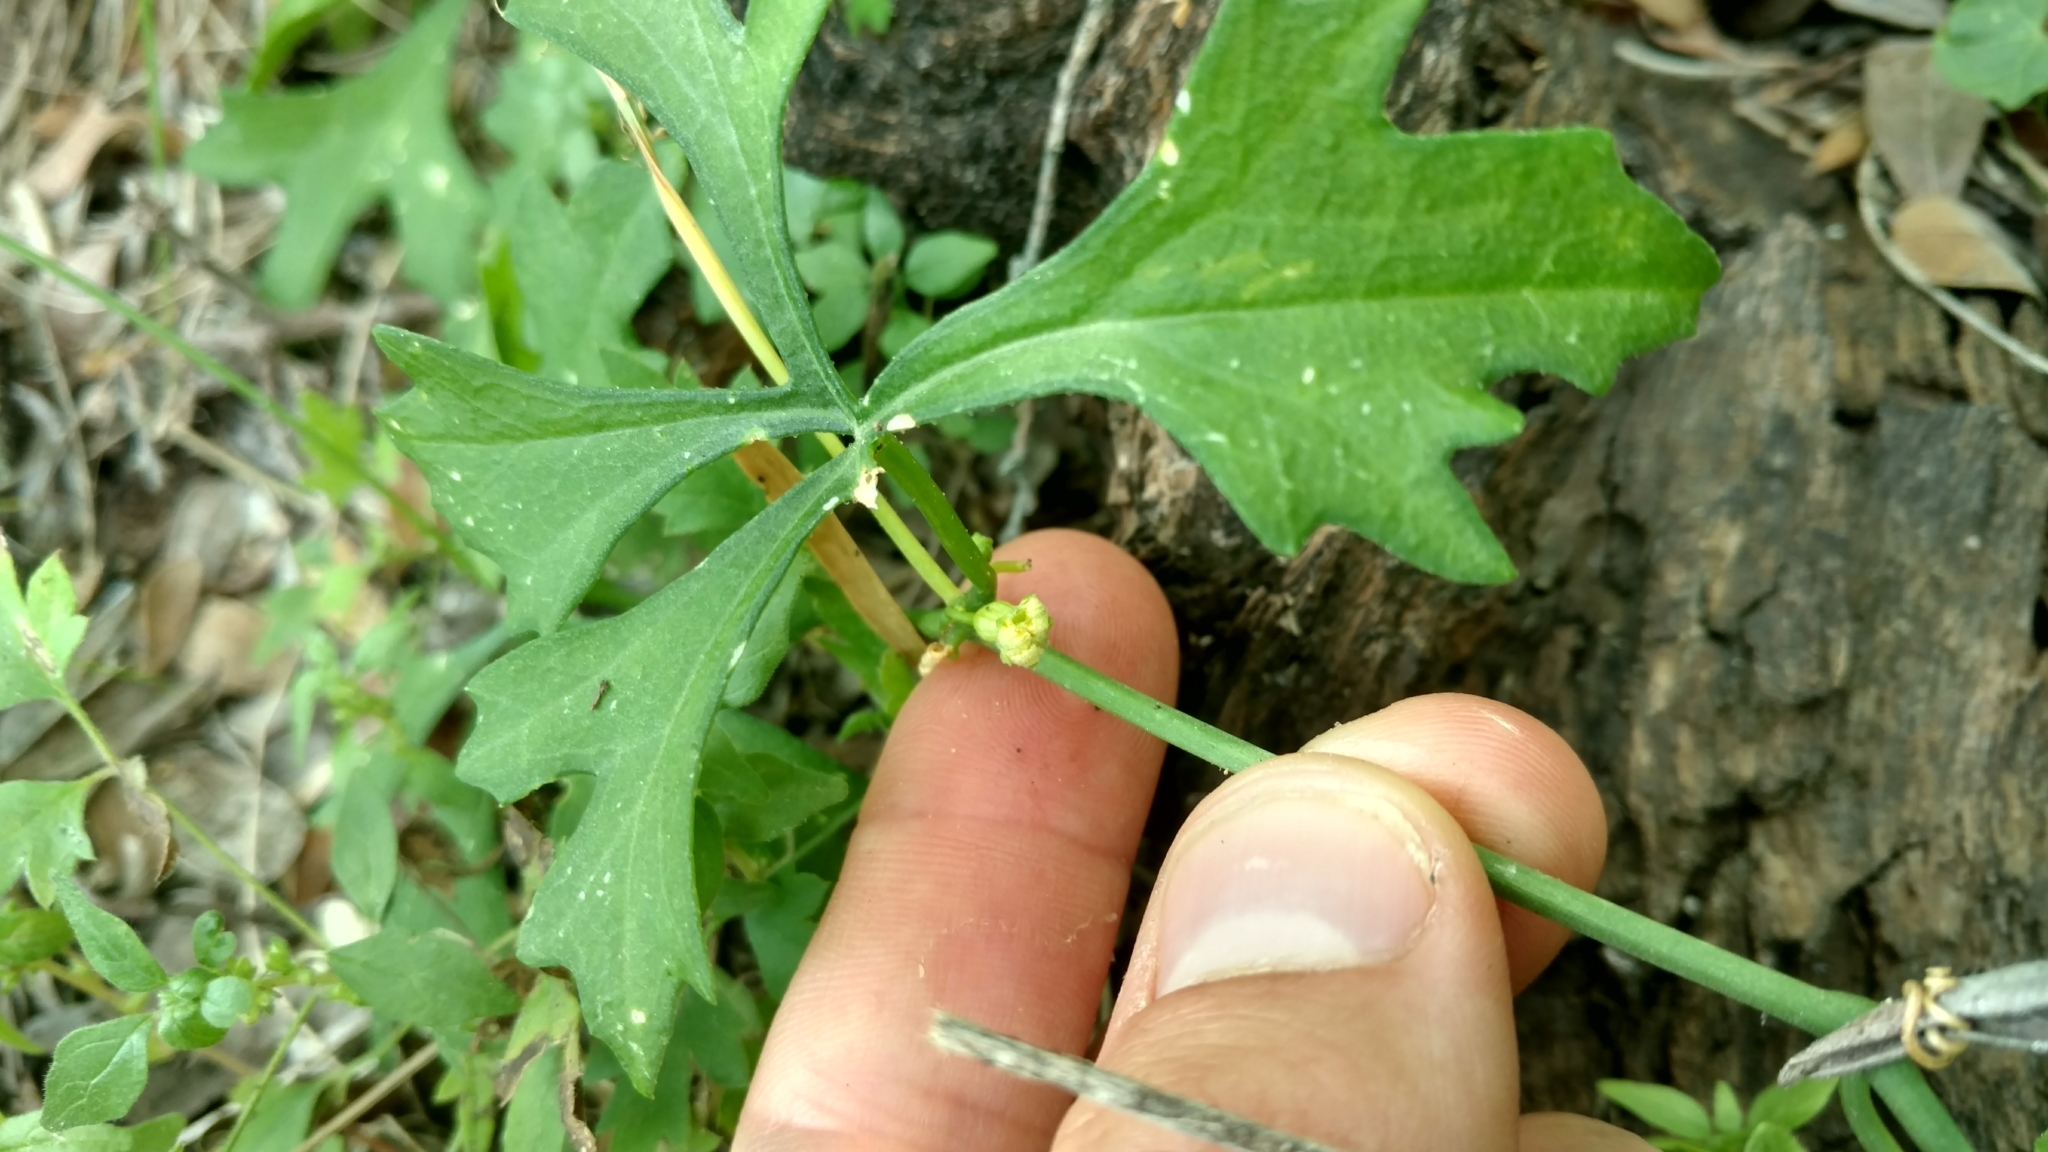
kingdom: Plantae
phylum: Tracheophyta
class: Magnoliopsida
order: Cucurbitales
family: Cucurbitaceae
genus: Ibervillea
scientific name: Ibervillea lindheimeri
